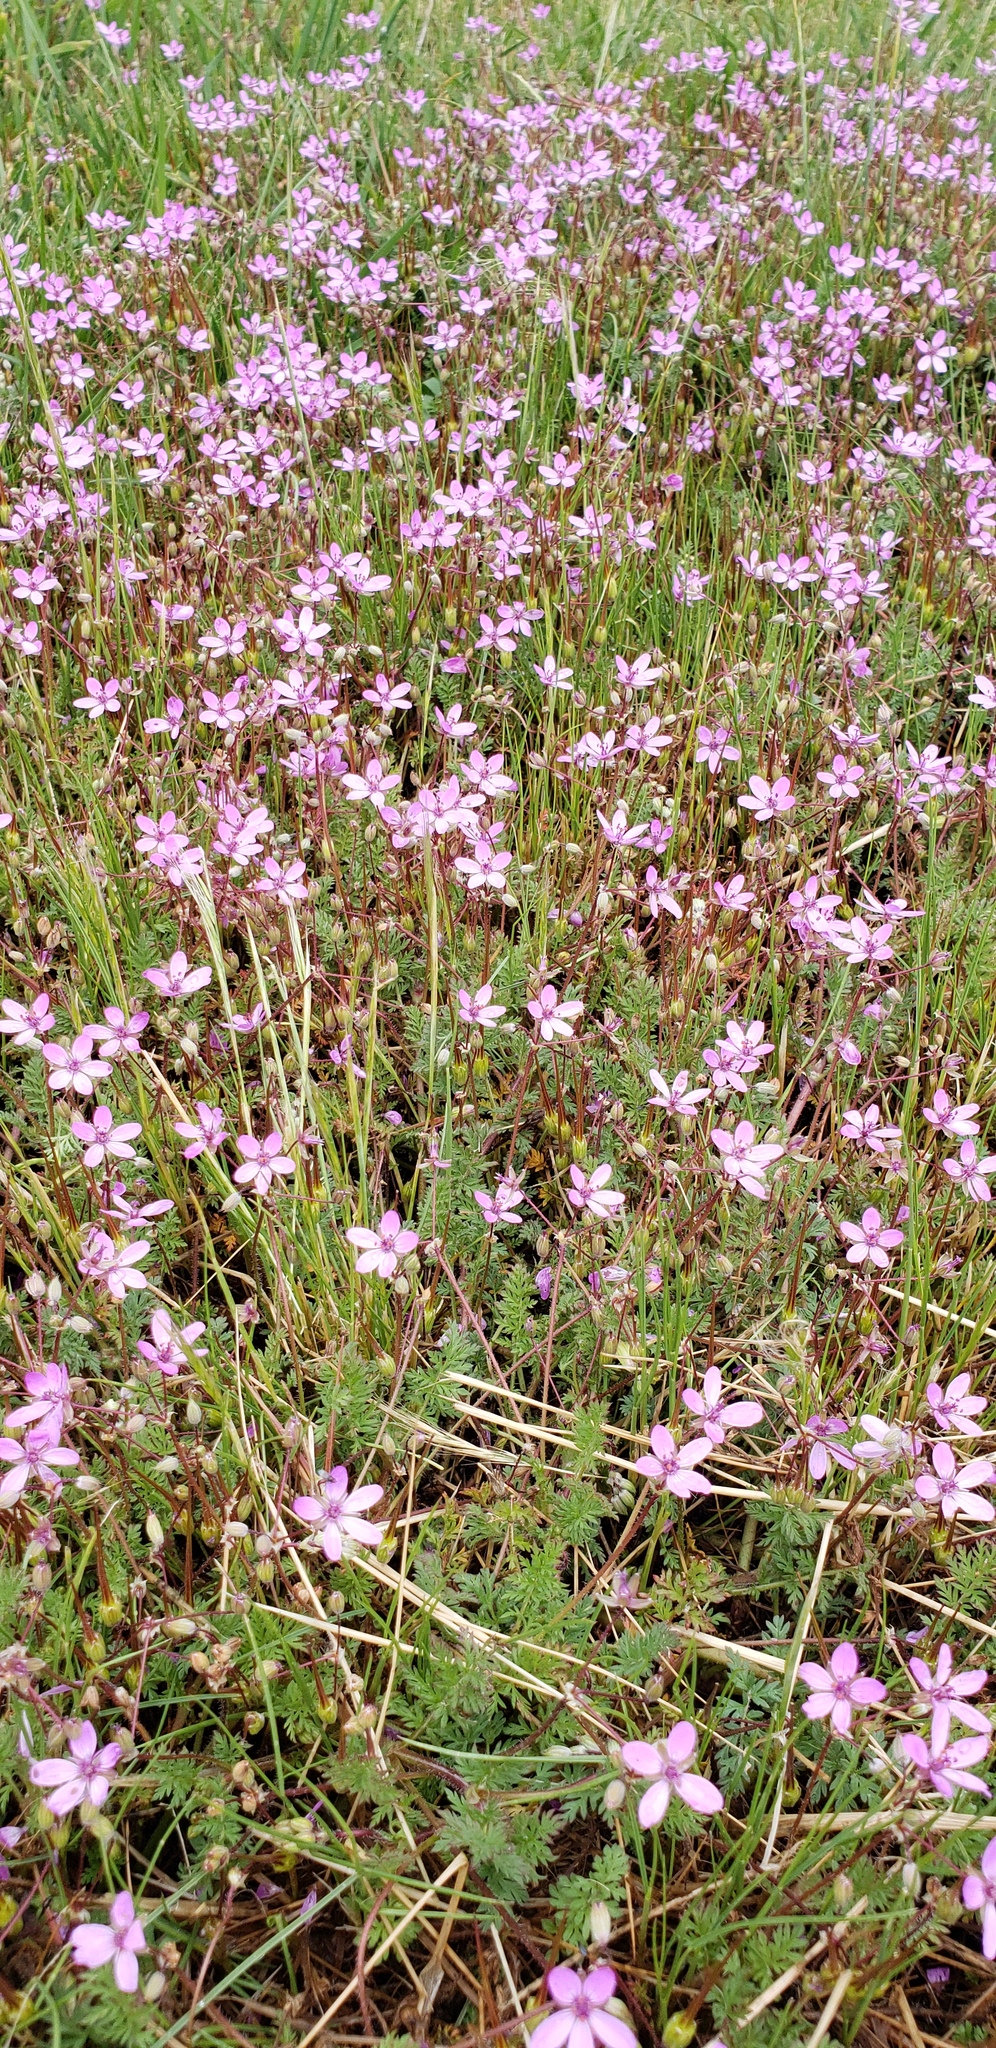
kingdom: Plantae
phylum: Tracheophyta
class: Magnoliopsida
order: Geraniales
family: Geraniaceae
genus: Erodium
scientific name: Erodium cicutarium
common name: Common stork's-bill
